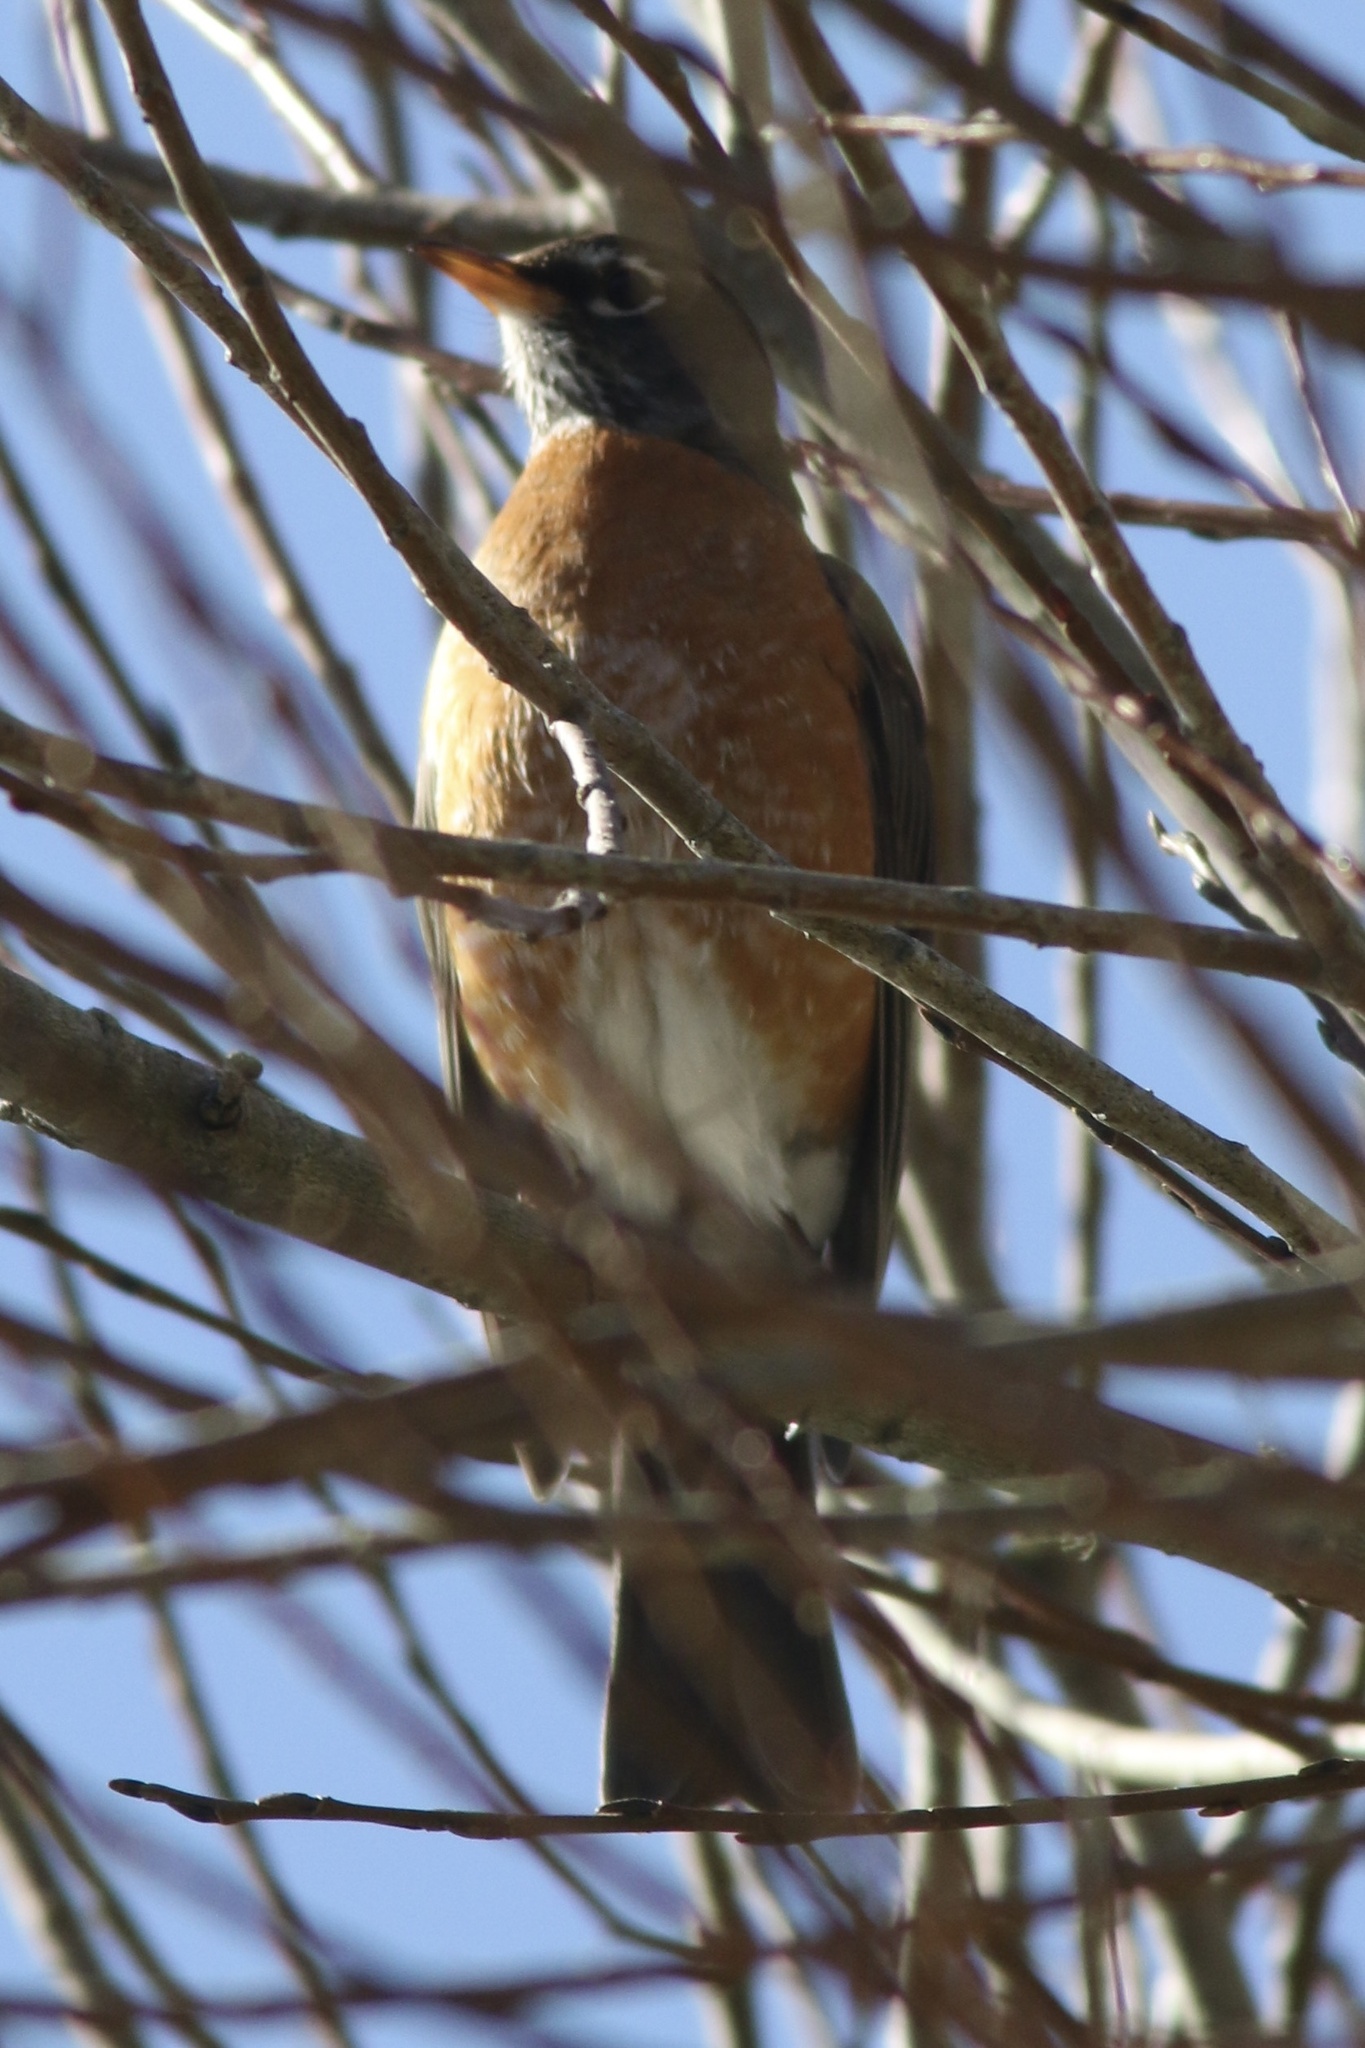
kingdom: Animalia
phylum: Chordata
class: Aves
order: Passeriformes
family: Turdidae
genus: Turdus
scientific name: Turdus migratorius
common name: American robin
